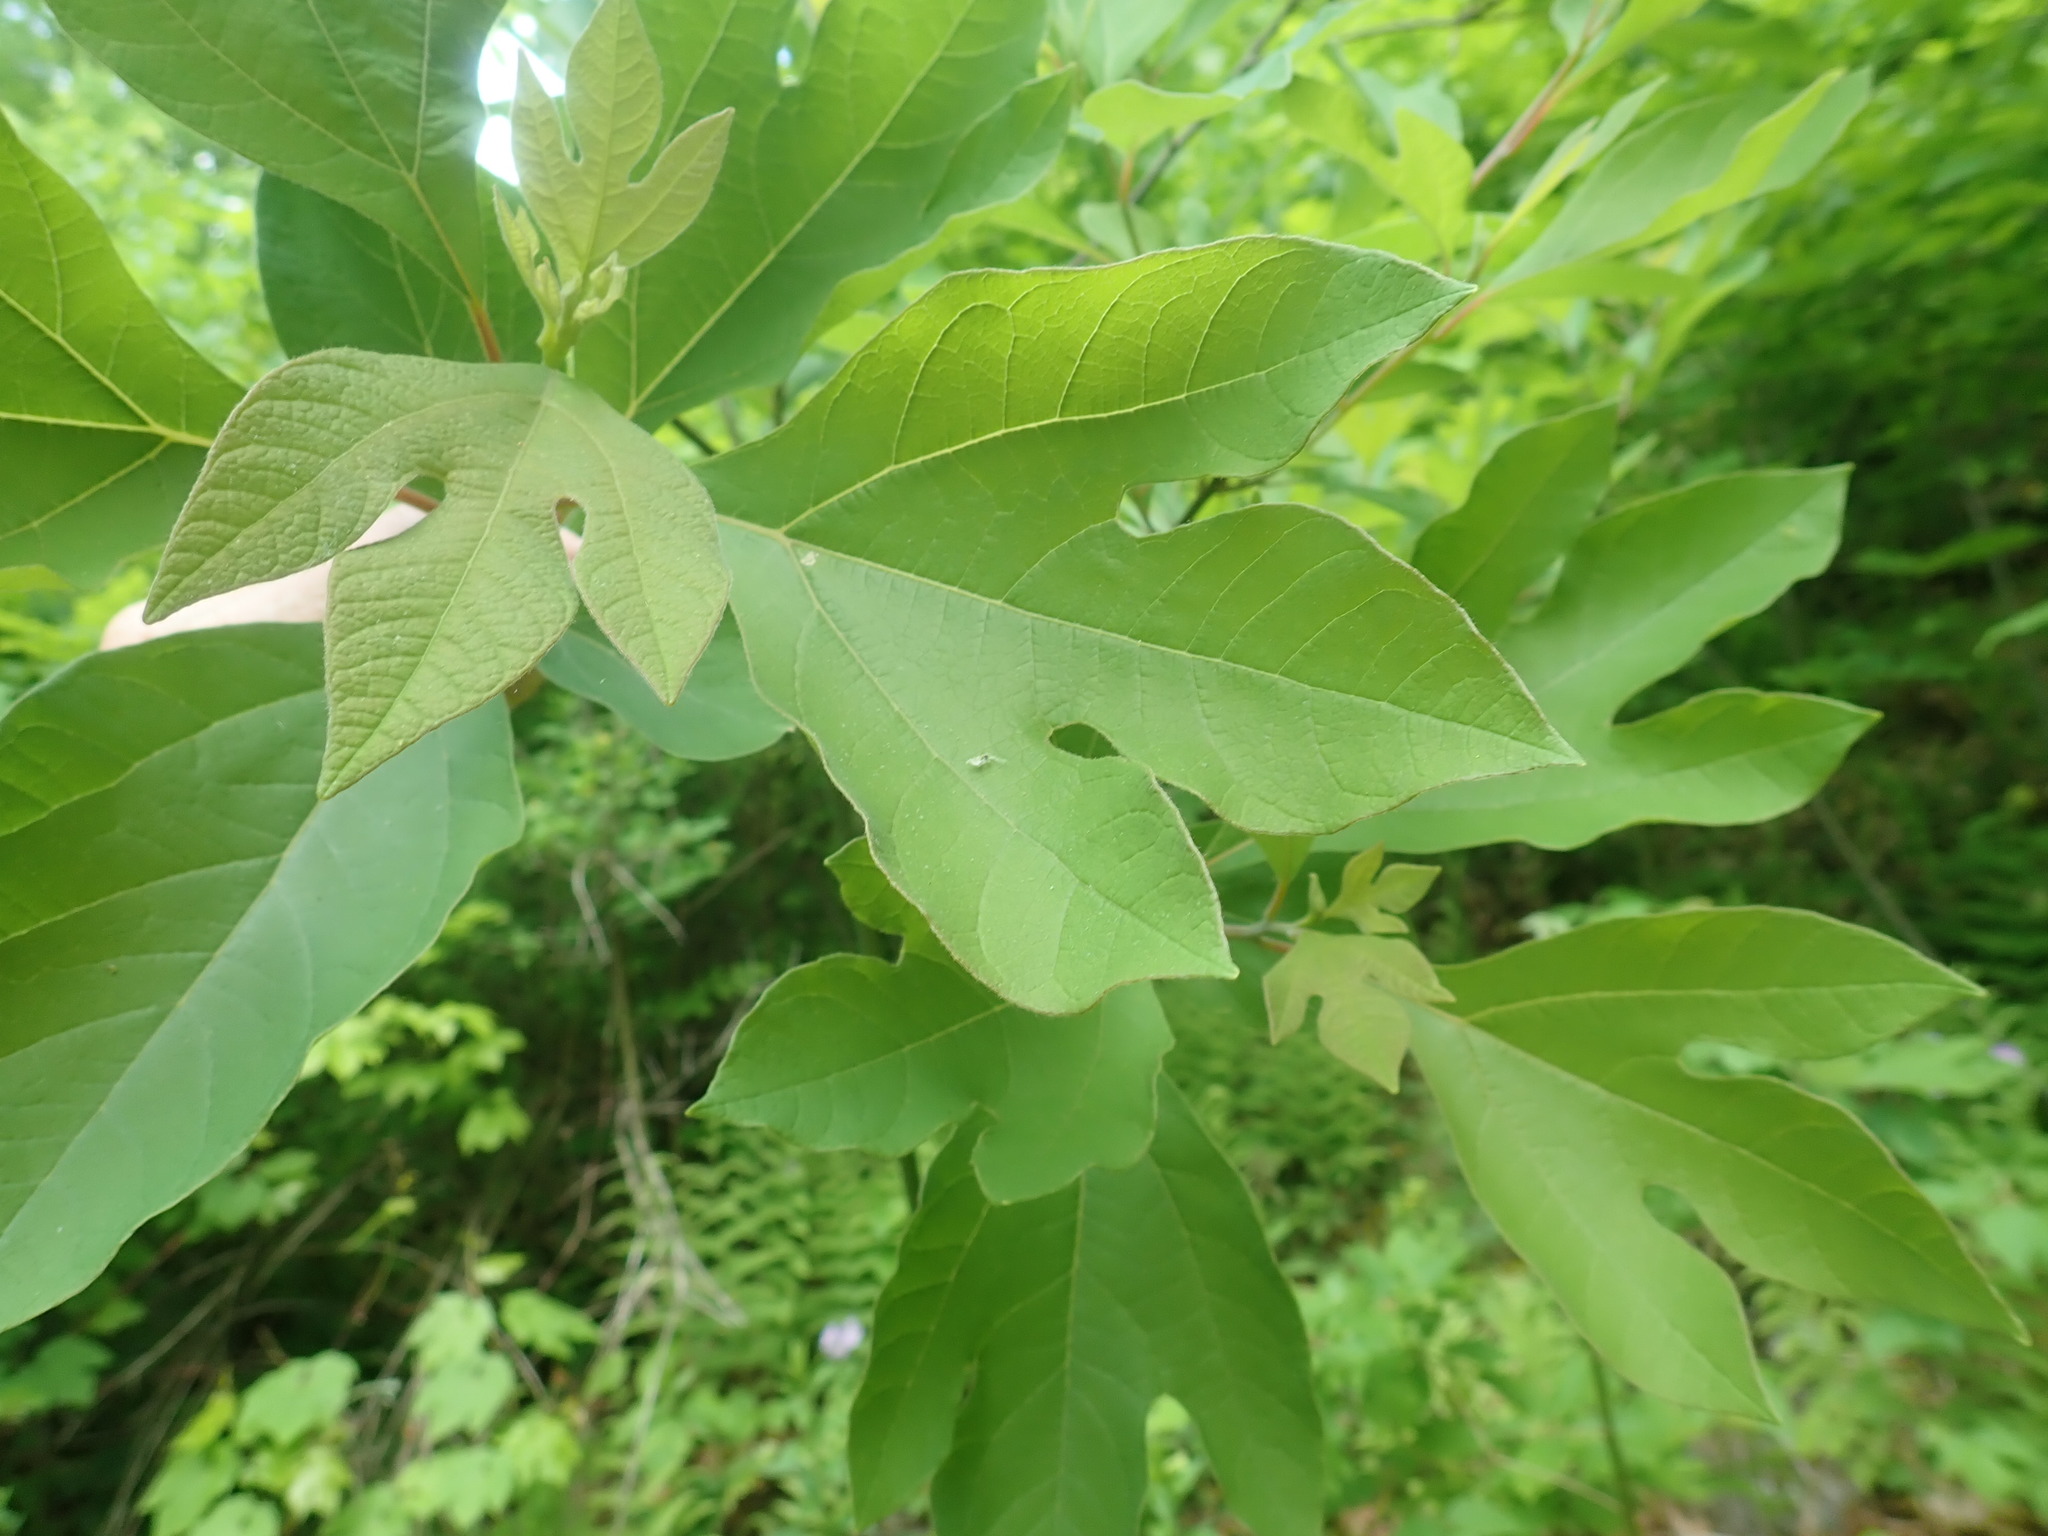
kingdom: Plantae
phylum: Tracheophyta
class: Magnoliopsida
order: Laurales
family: Lauraceae
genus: Sassafras
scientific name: Sassafras albidum
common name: Sassafras
